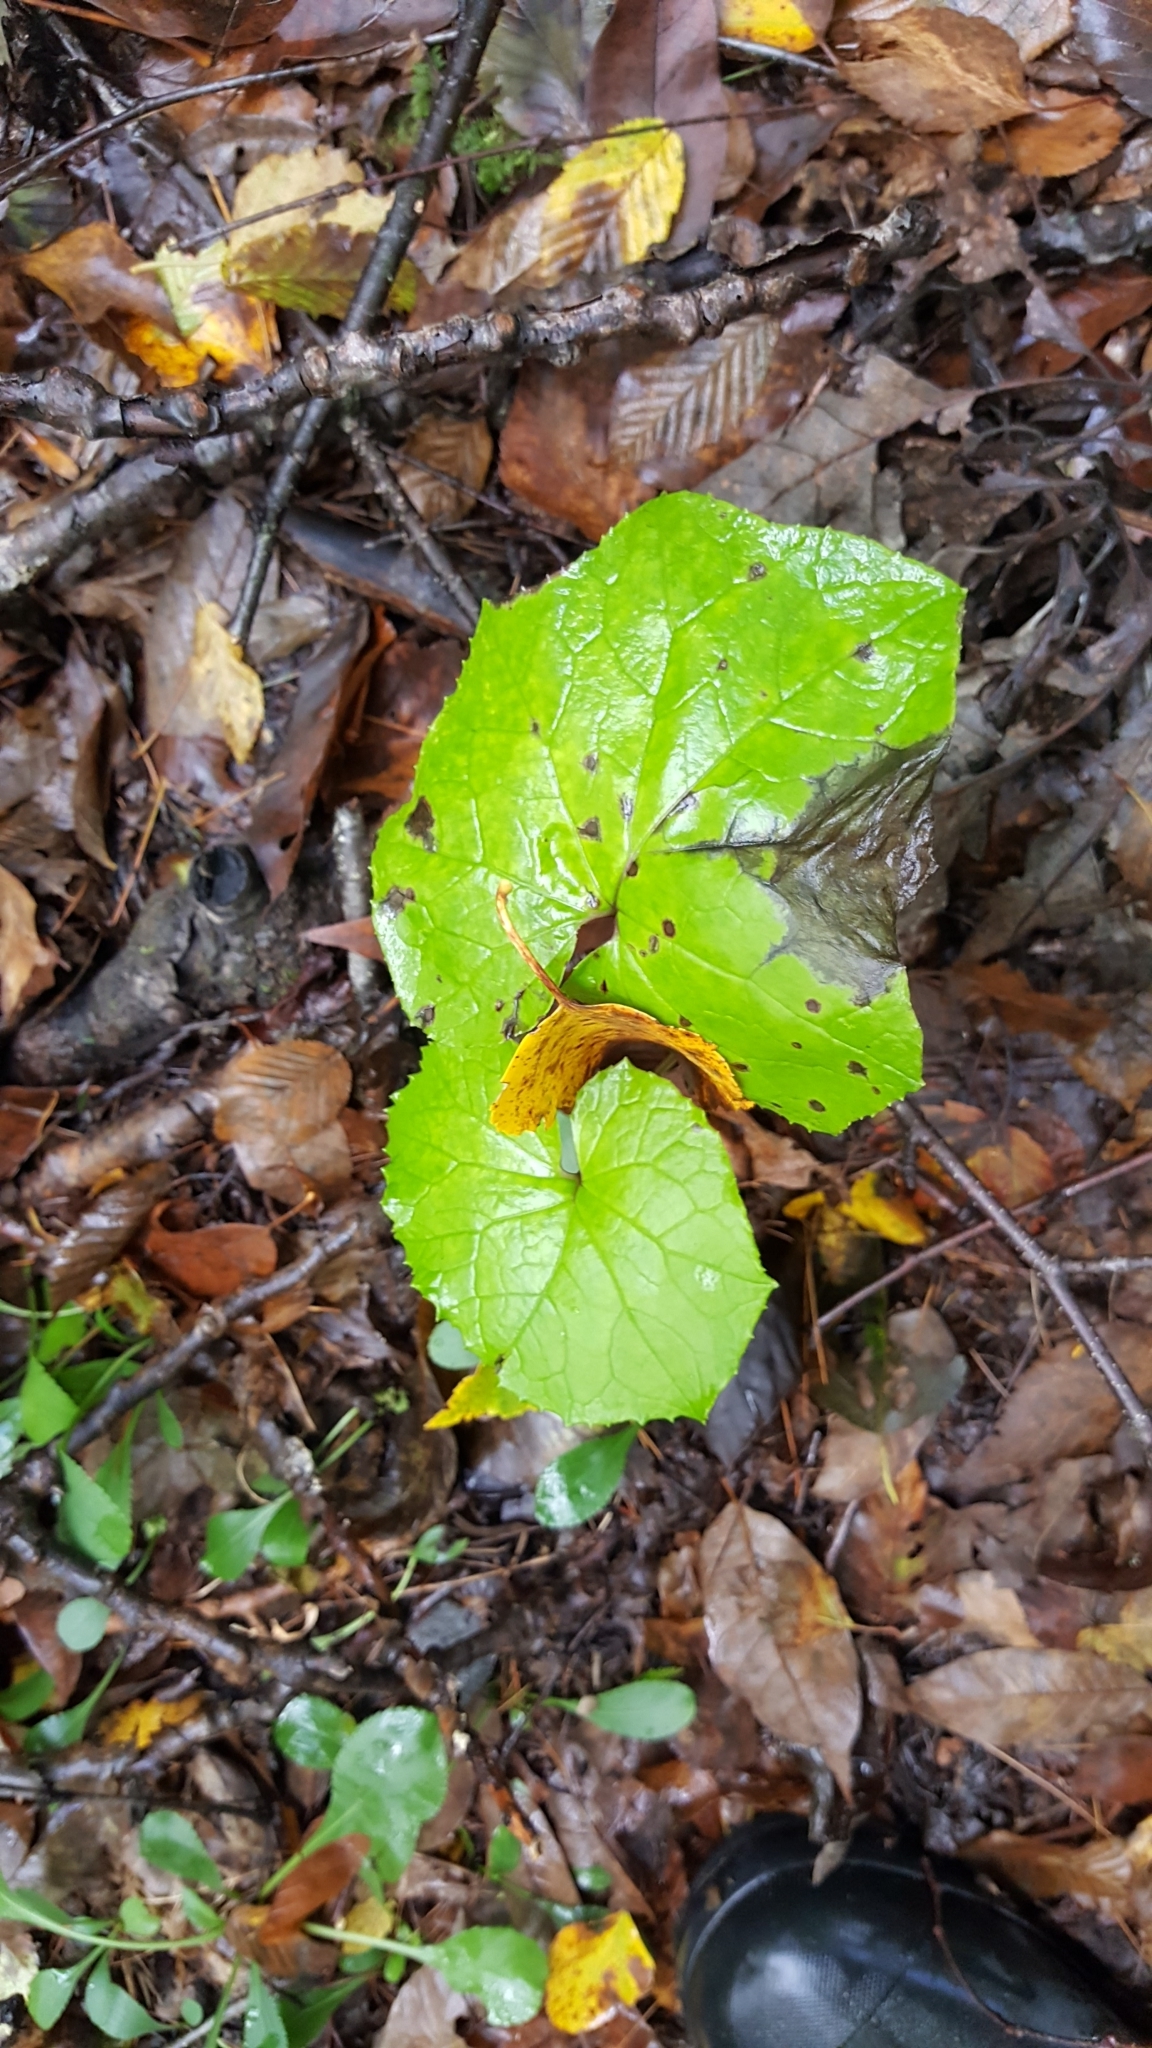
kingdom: Plantae
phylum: Tracheophyta
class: Magnoliopsida
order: Asterales
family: Asteraceae
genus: Tussilago
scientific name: Tussilago farfara
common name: Coltsfoot
